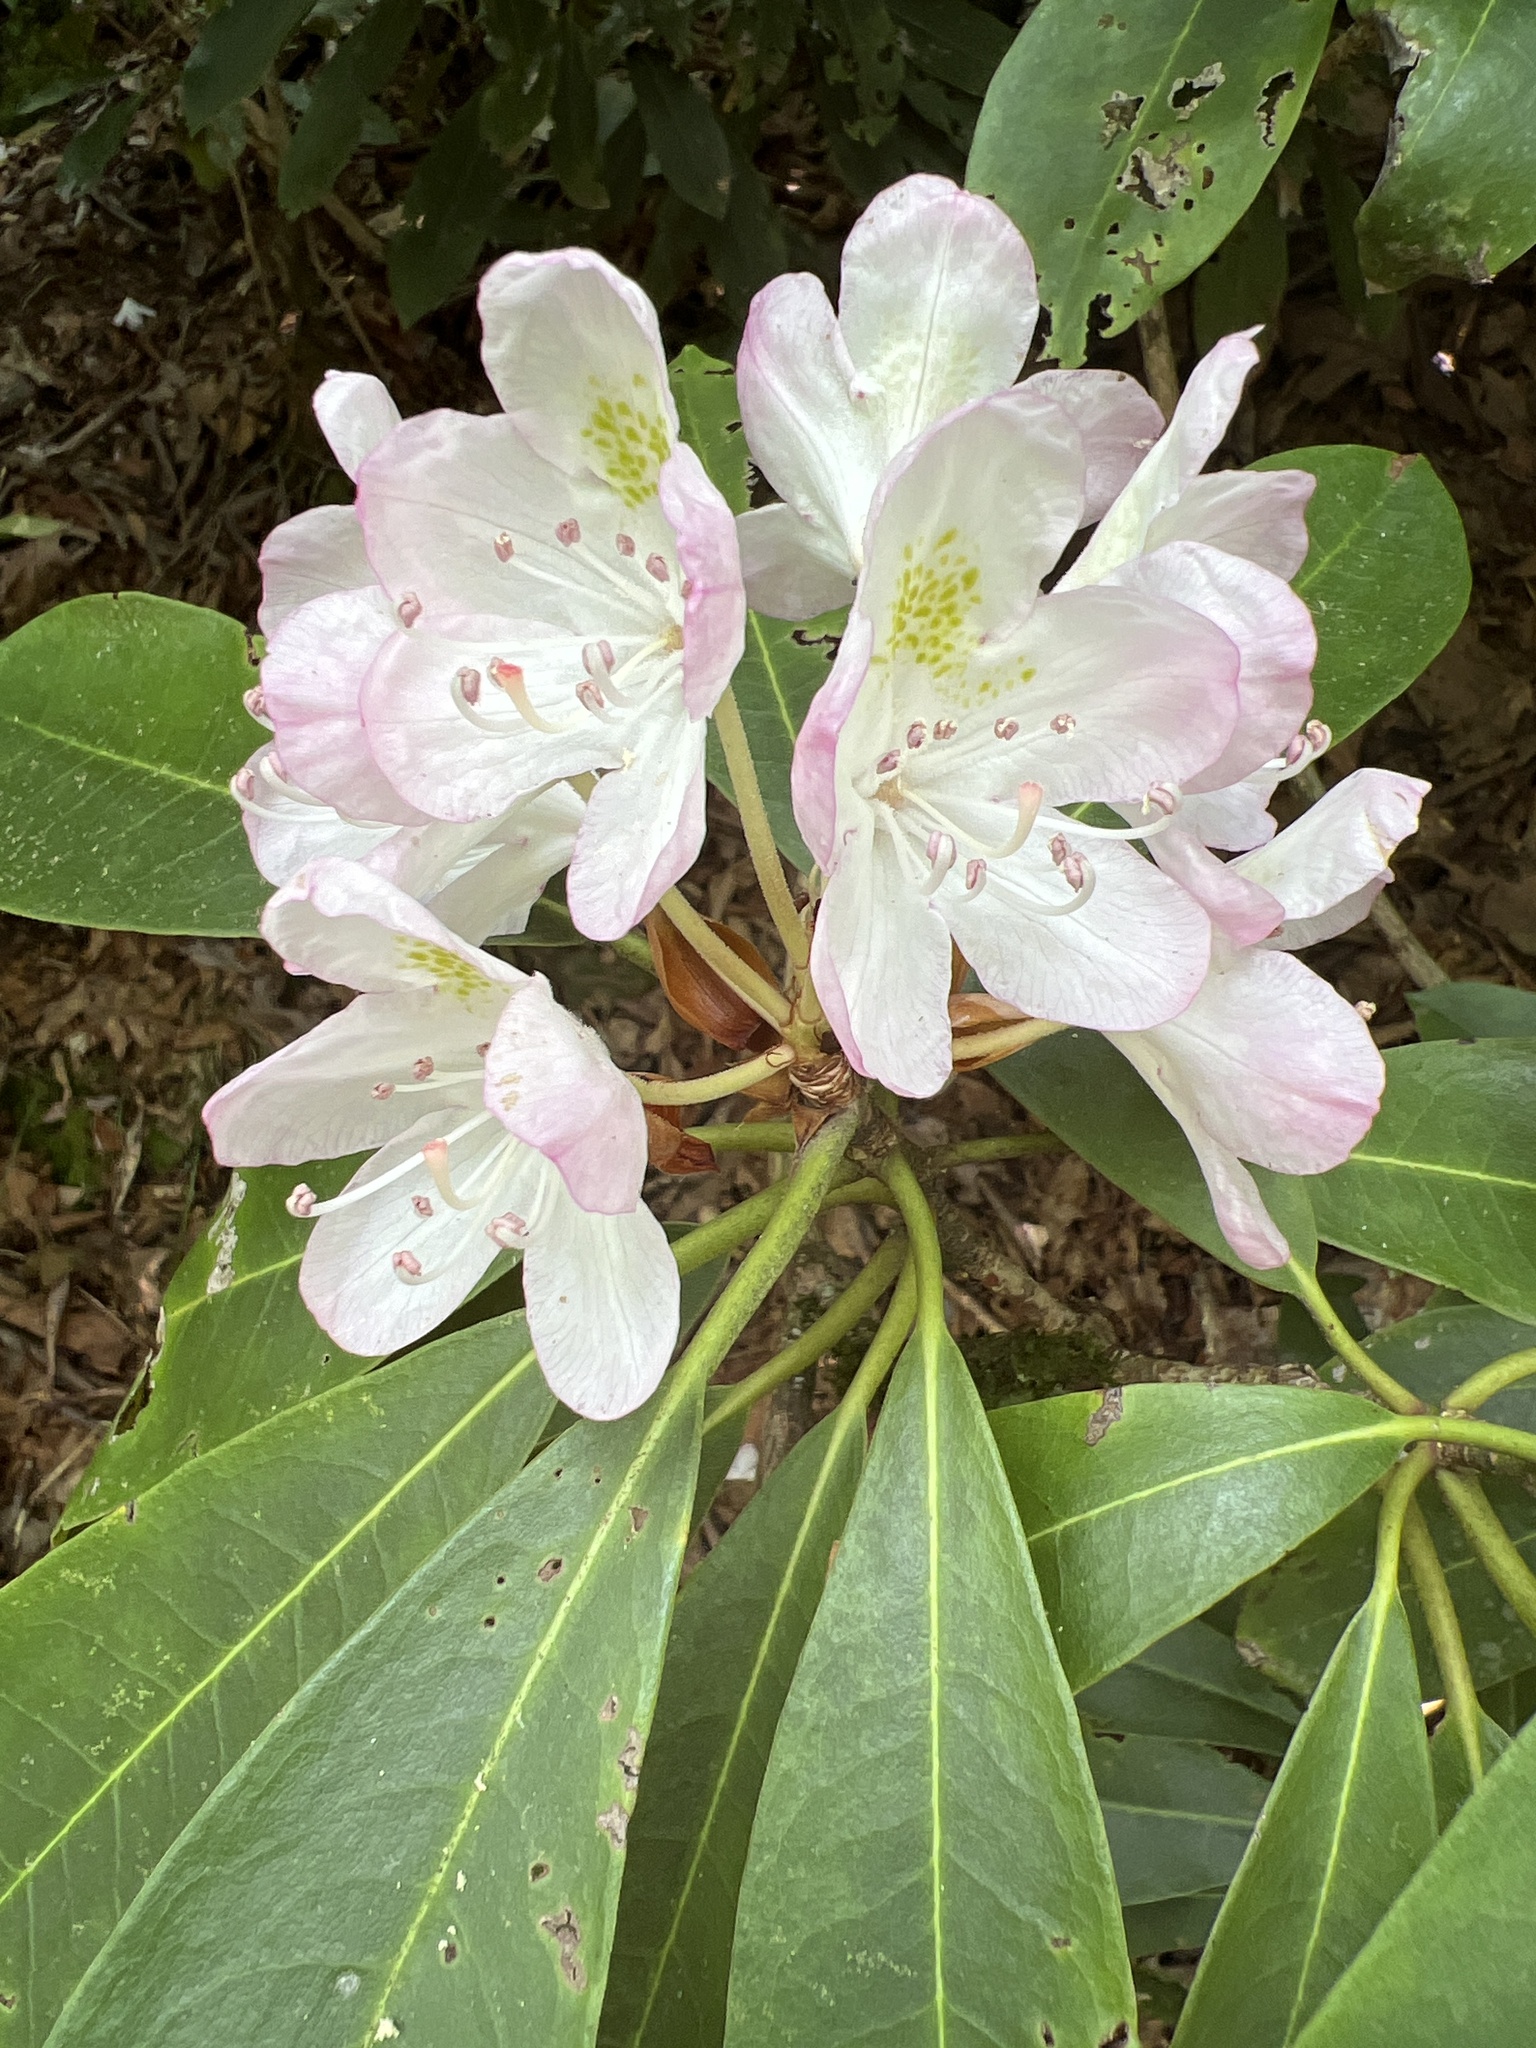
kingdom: Plantae
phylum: Tracheophyta
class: Magnoliopsida
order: Ericales
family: Ericaceae
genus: Rhododendron
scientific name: Rhododendron maximum
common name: Great rhododendron
